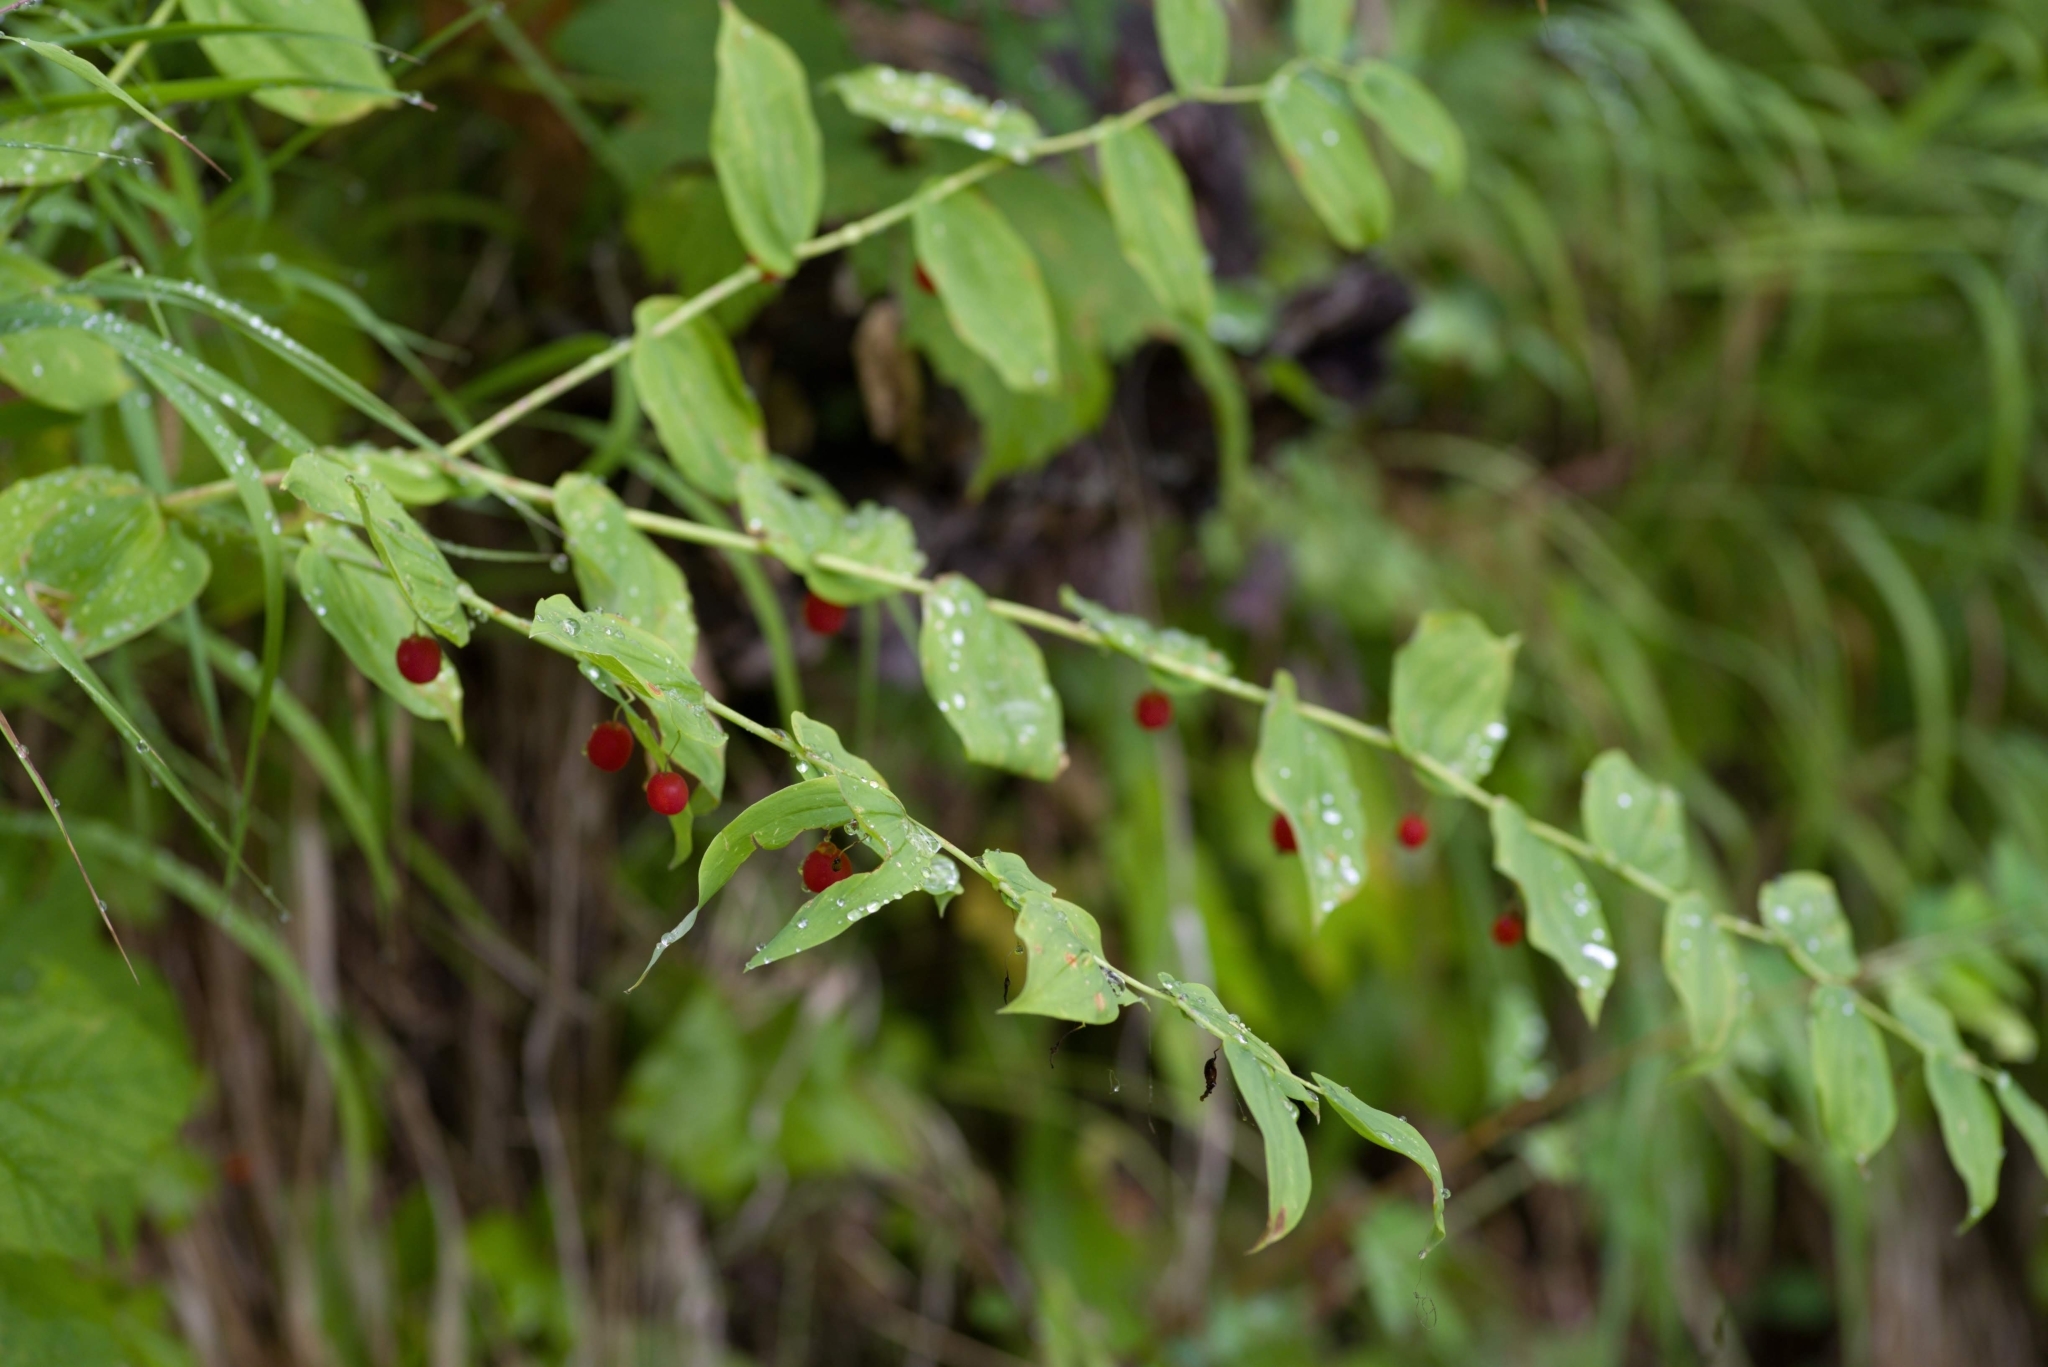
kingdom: Plantae
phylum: Tracheophyta
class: Liliopsida
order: Liliales
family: Liliaceae
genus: Streptopus
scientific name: Streptopus amplexifolius
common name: Clasp twisted stalk
